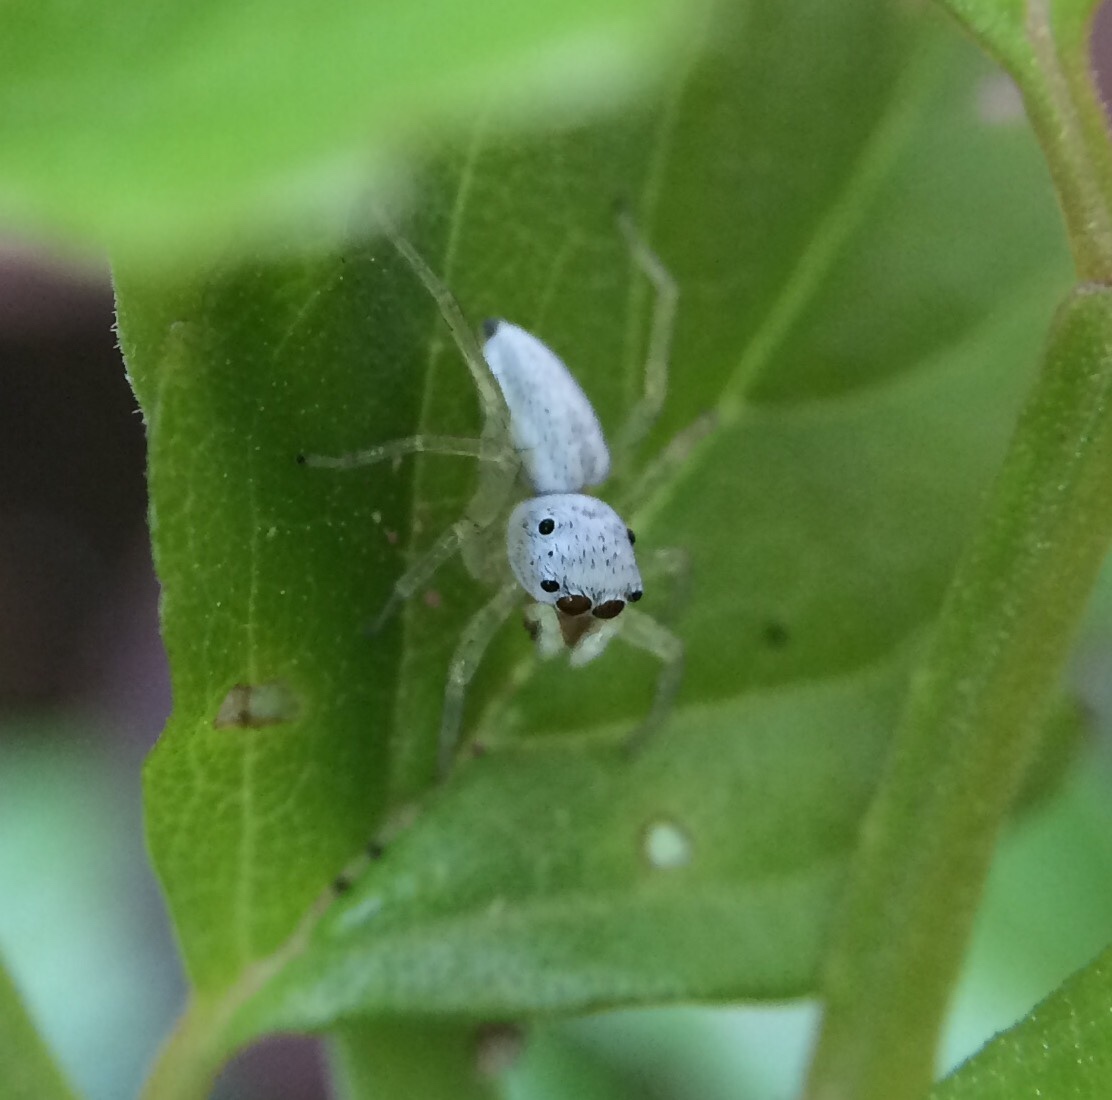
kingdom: Animalia
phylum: Arthropoda
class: Arachnida
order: Araneae
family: Salticidae
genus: Phintella
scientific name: Phintella lajuma
